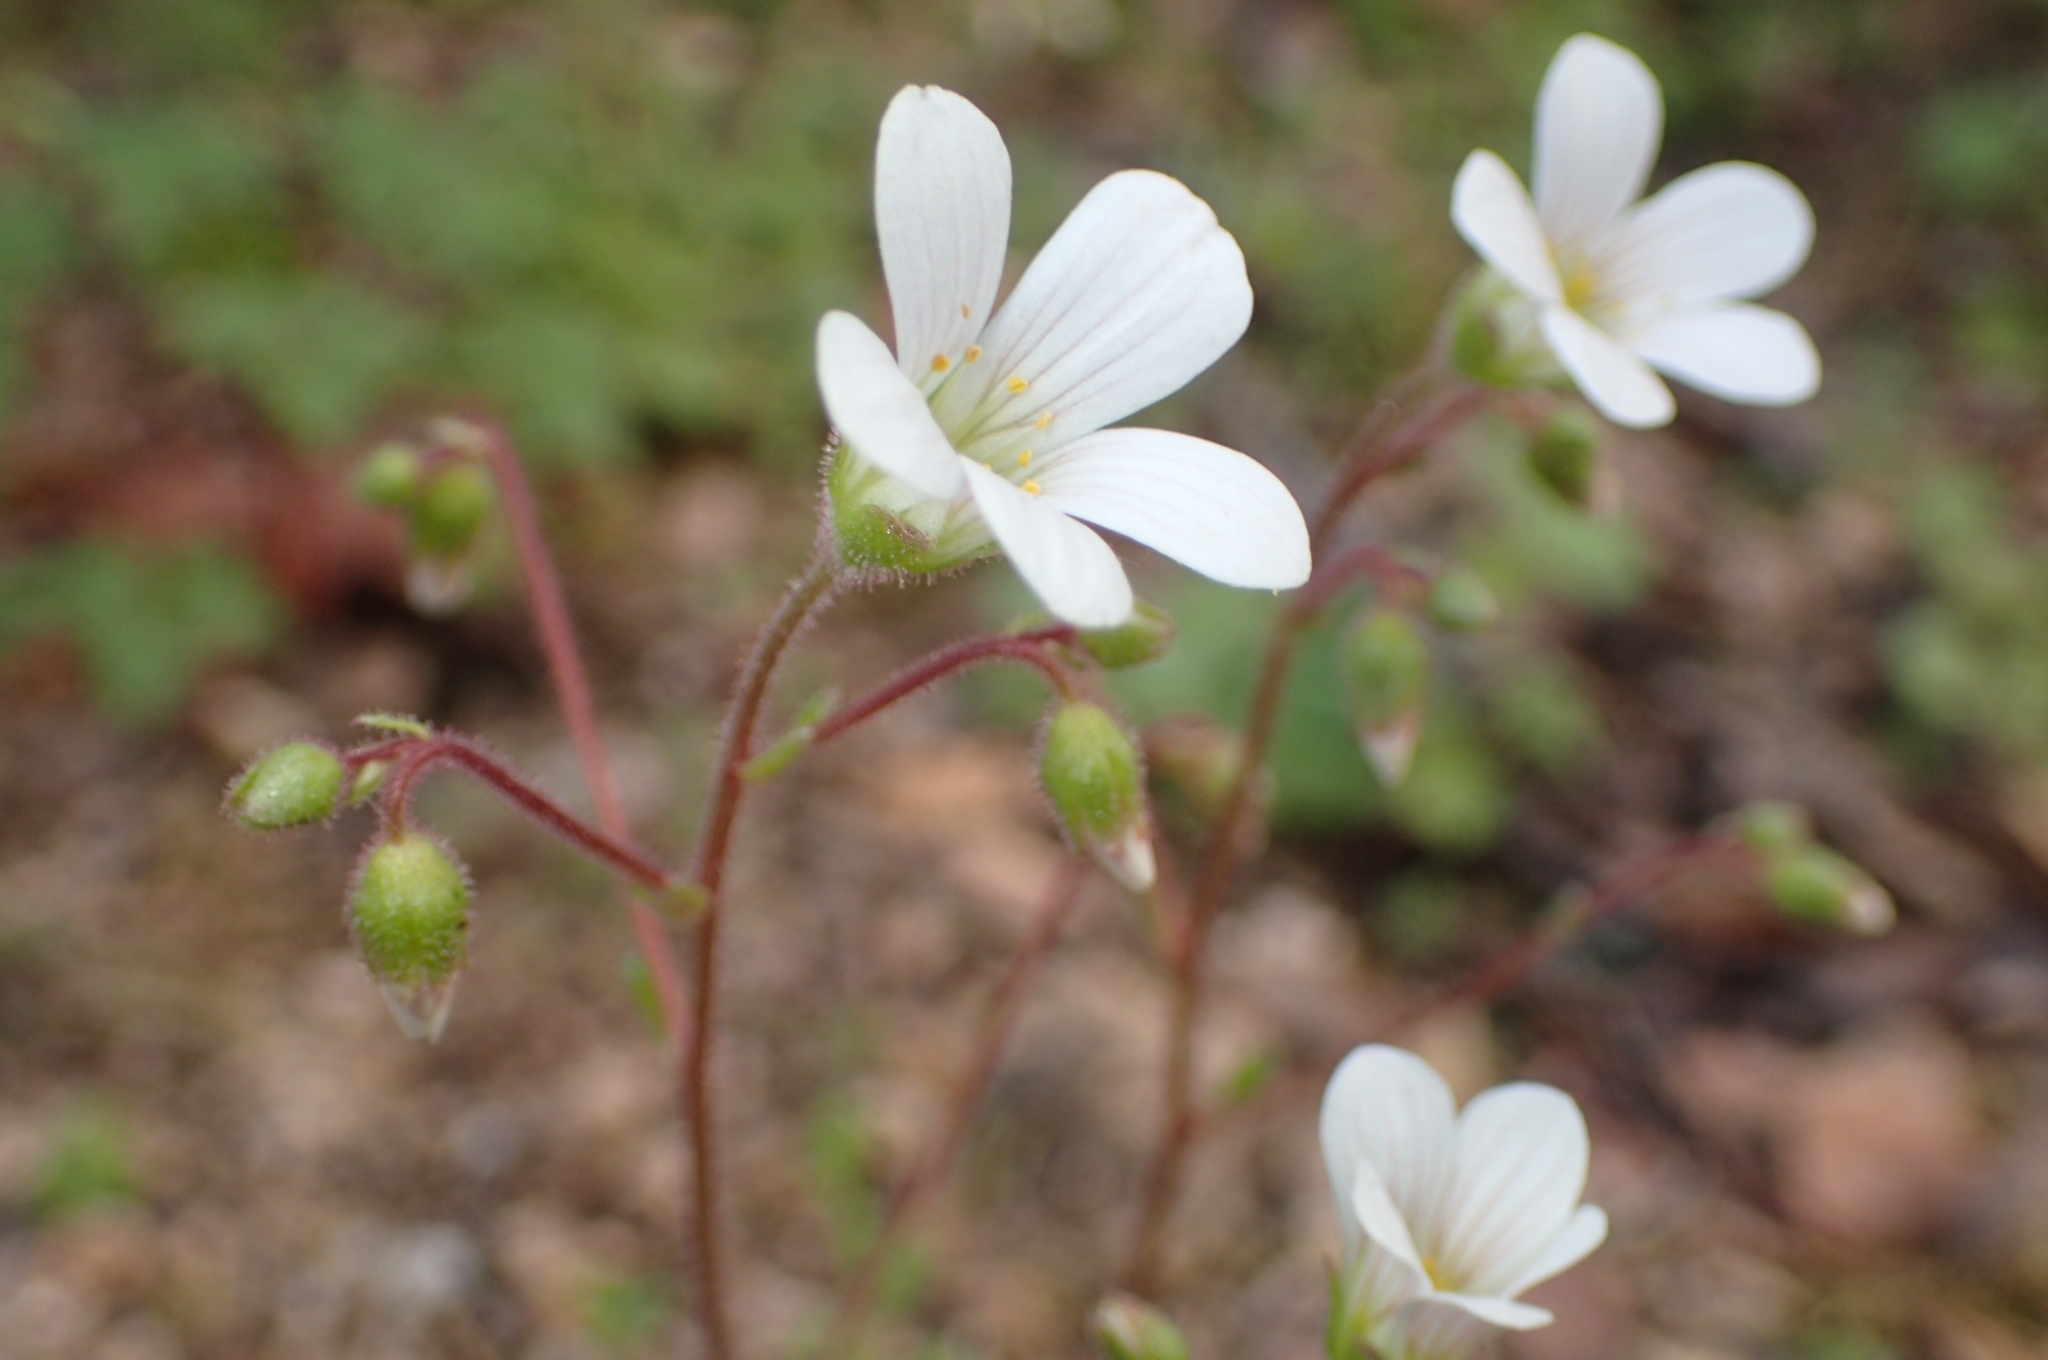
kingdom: Plantae
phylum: Tracheophyta
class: Magnoliopsida
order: Saxifragales
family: Saxifragaceae
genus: Saxifraga
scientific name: Saxifraga granulata
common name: Meadow saxifrage
